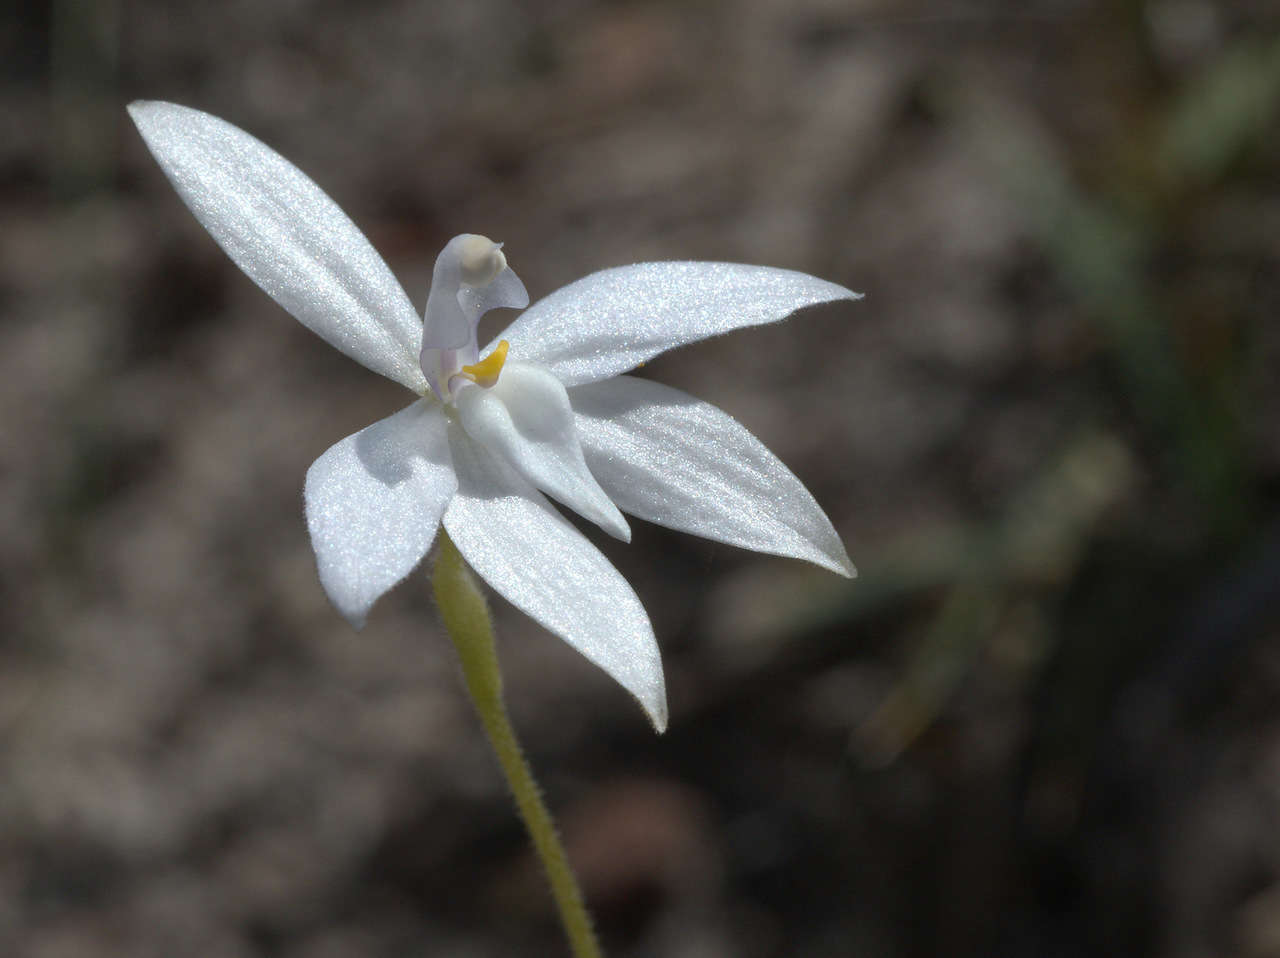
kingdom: Plantae
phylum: Tracheophyta
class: Liliopsida
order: Asparagales
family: Orchidaceae
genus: Caladenia
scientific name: Caladenia major
